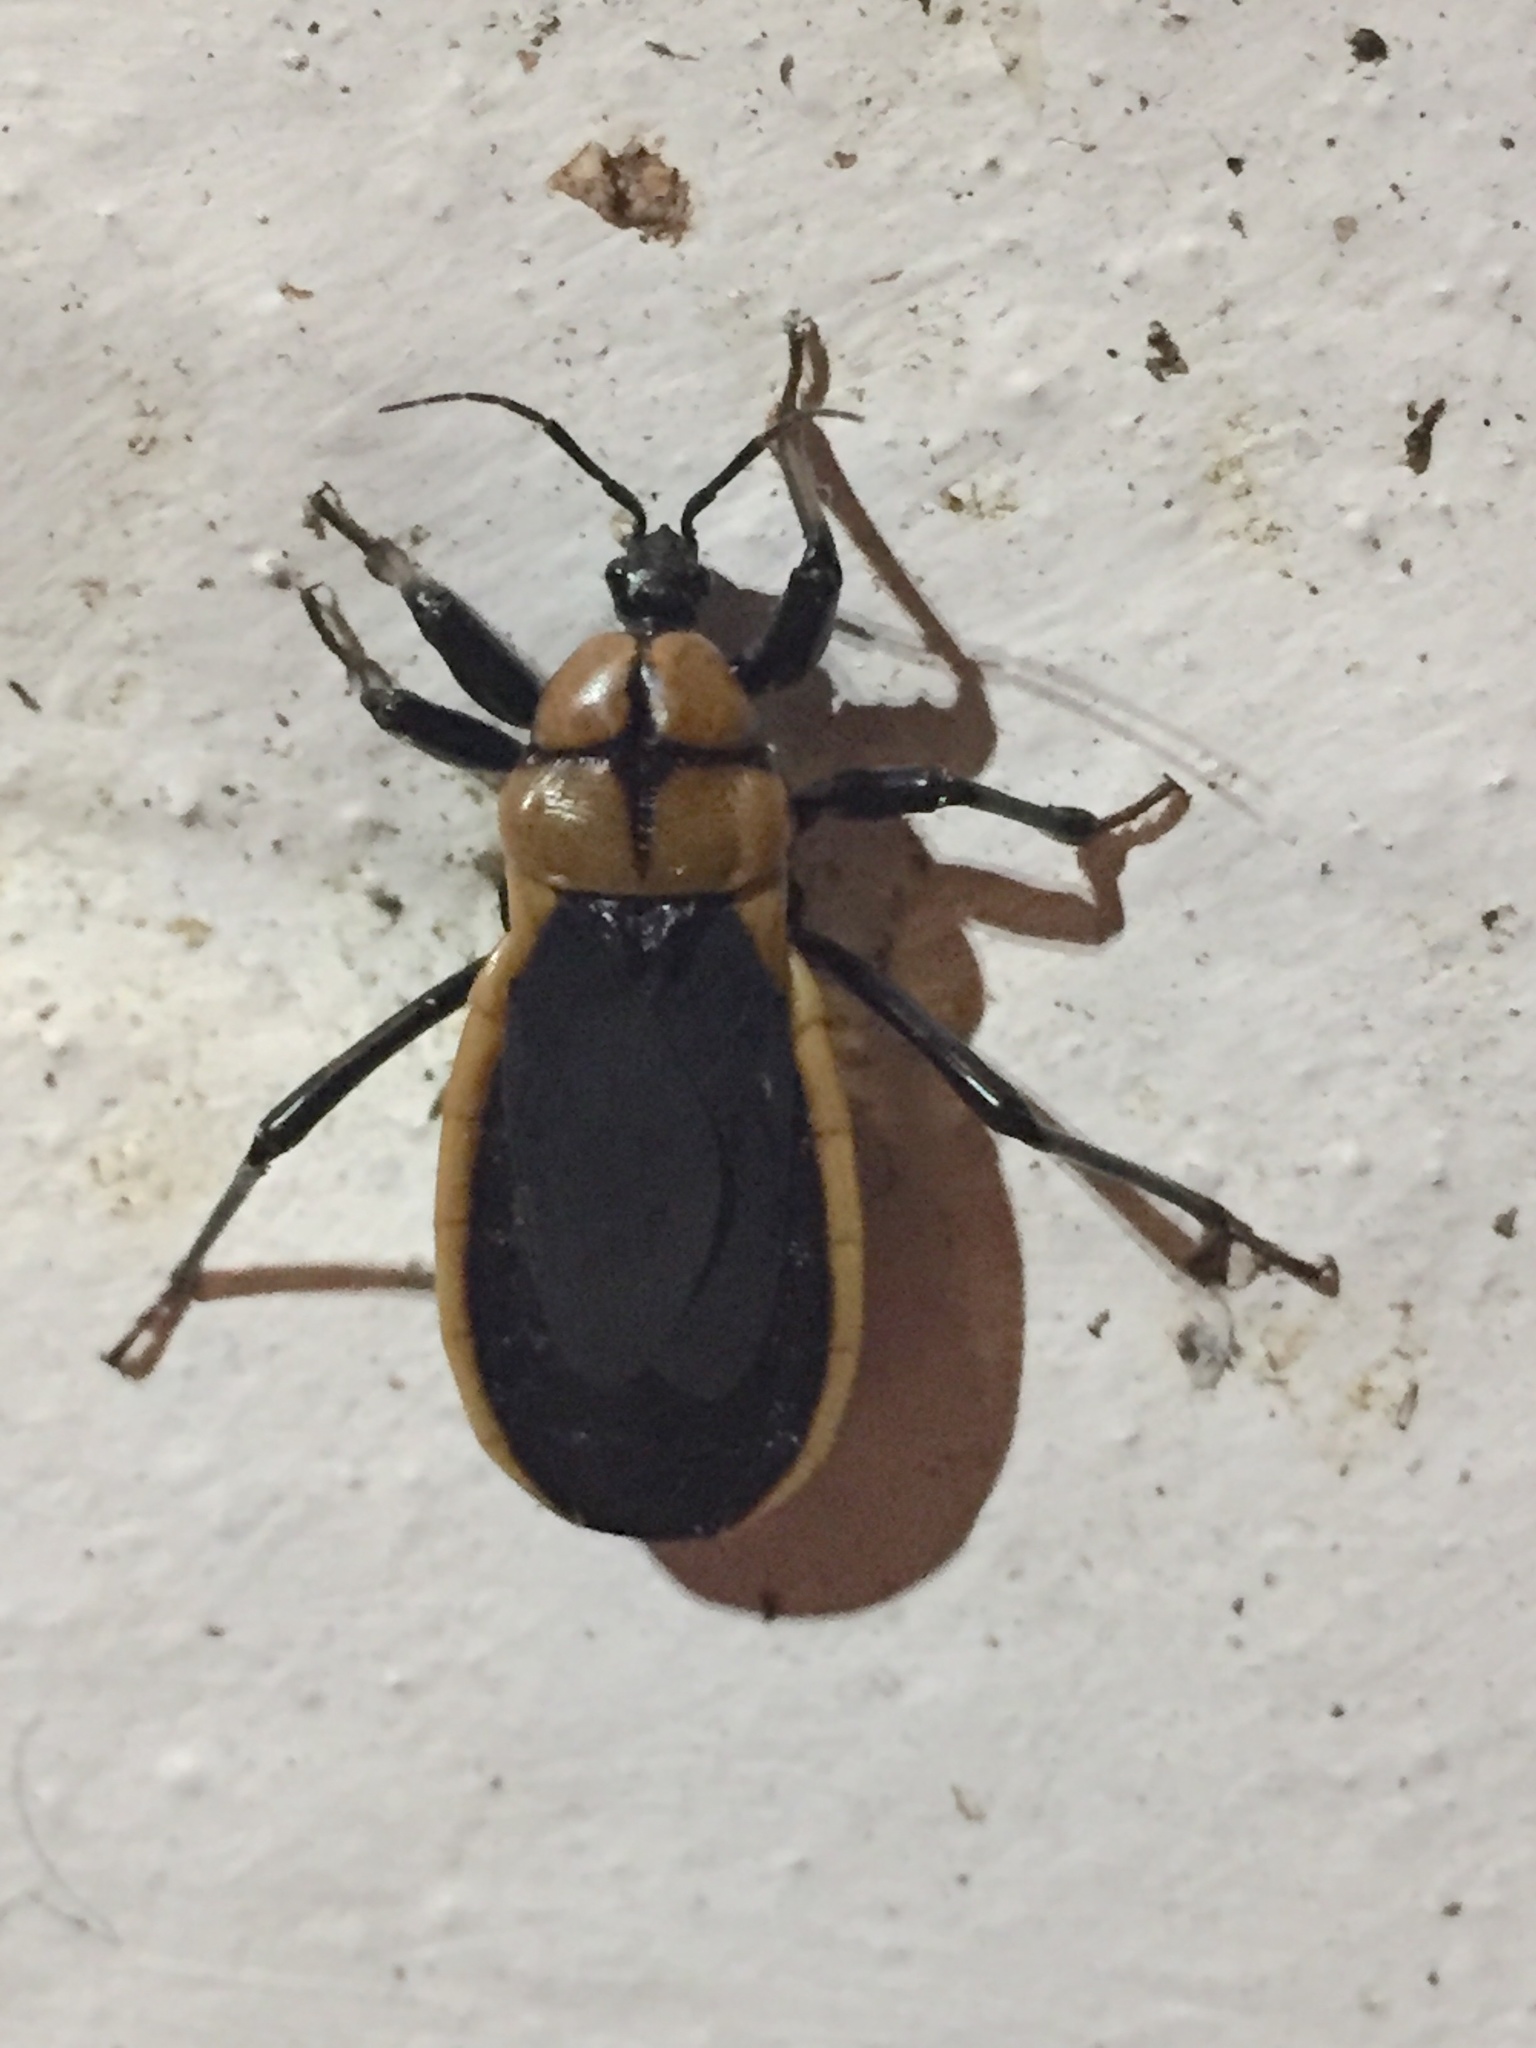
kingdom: Animalia
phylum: Arthropoda
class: Insecta
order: Hemiptera
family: Reduviidae
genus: Ectrichodia
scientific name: Ectrichodia crux
